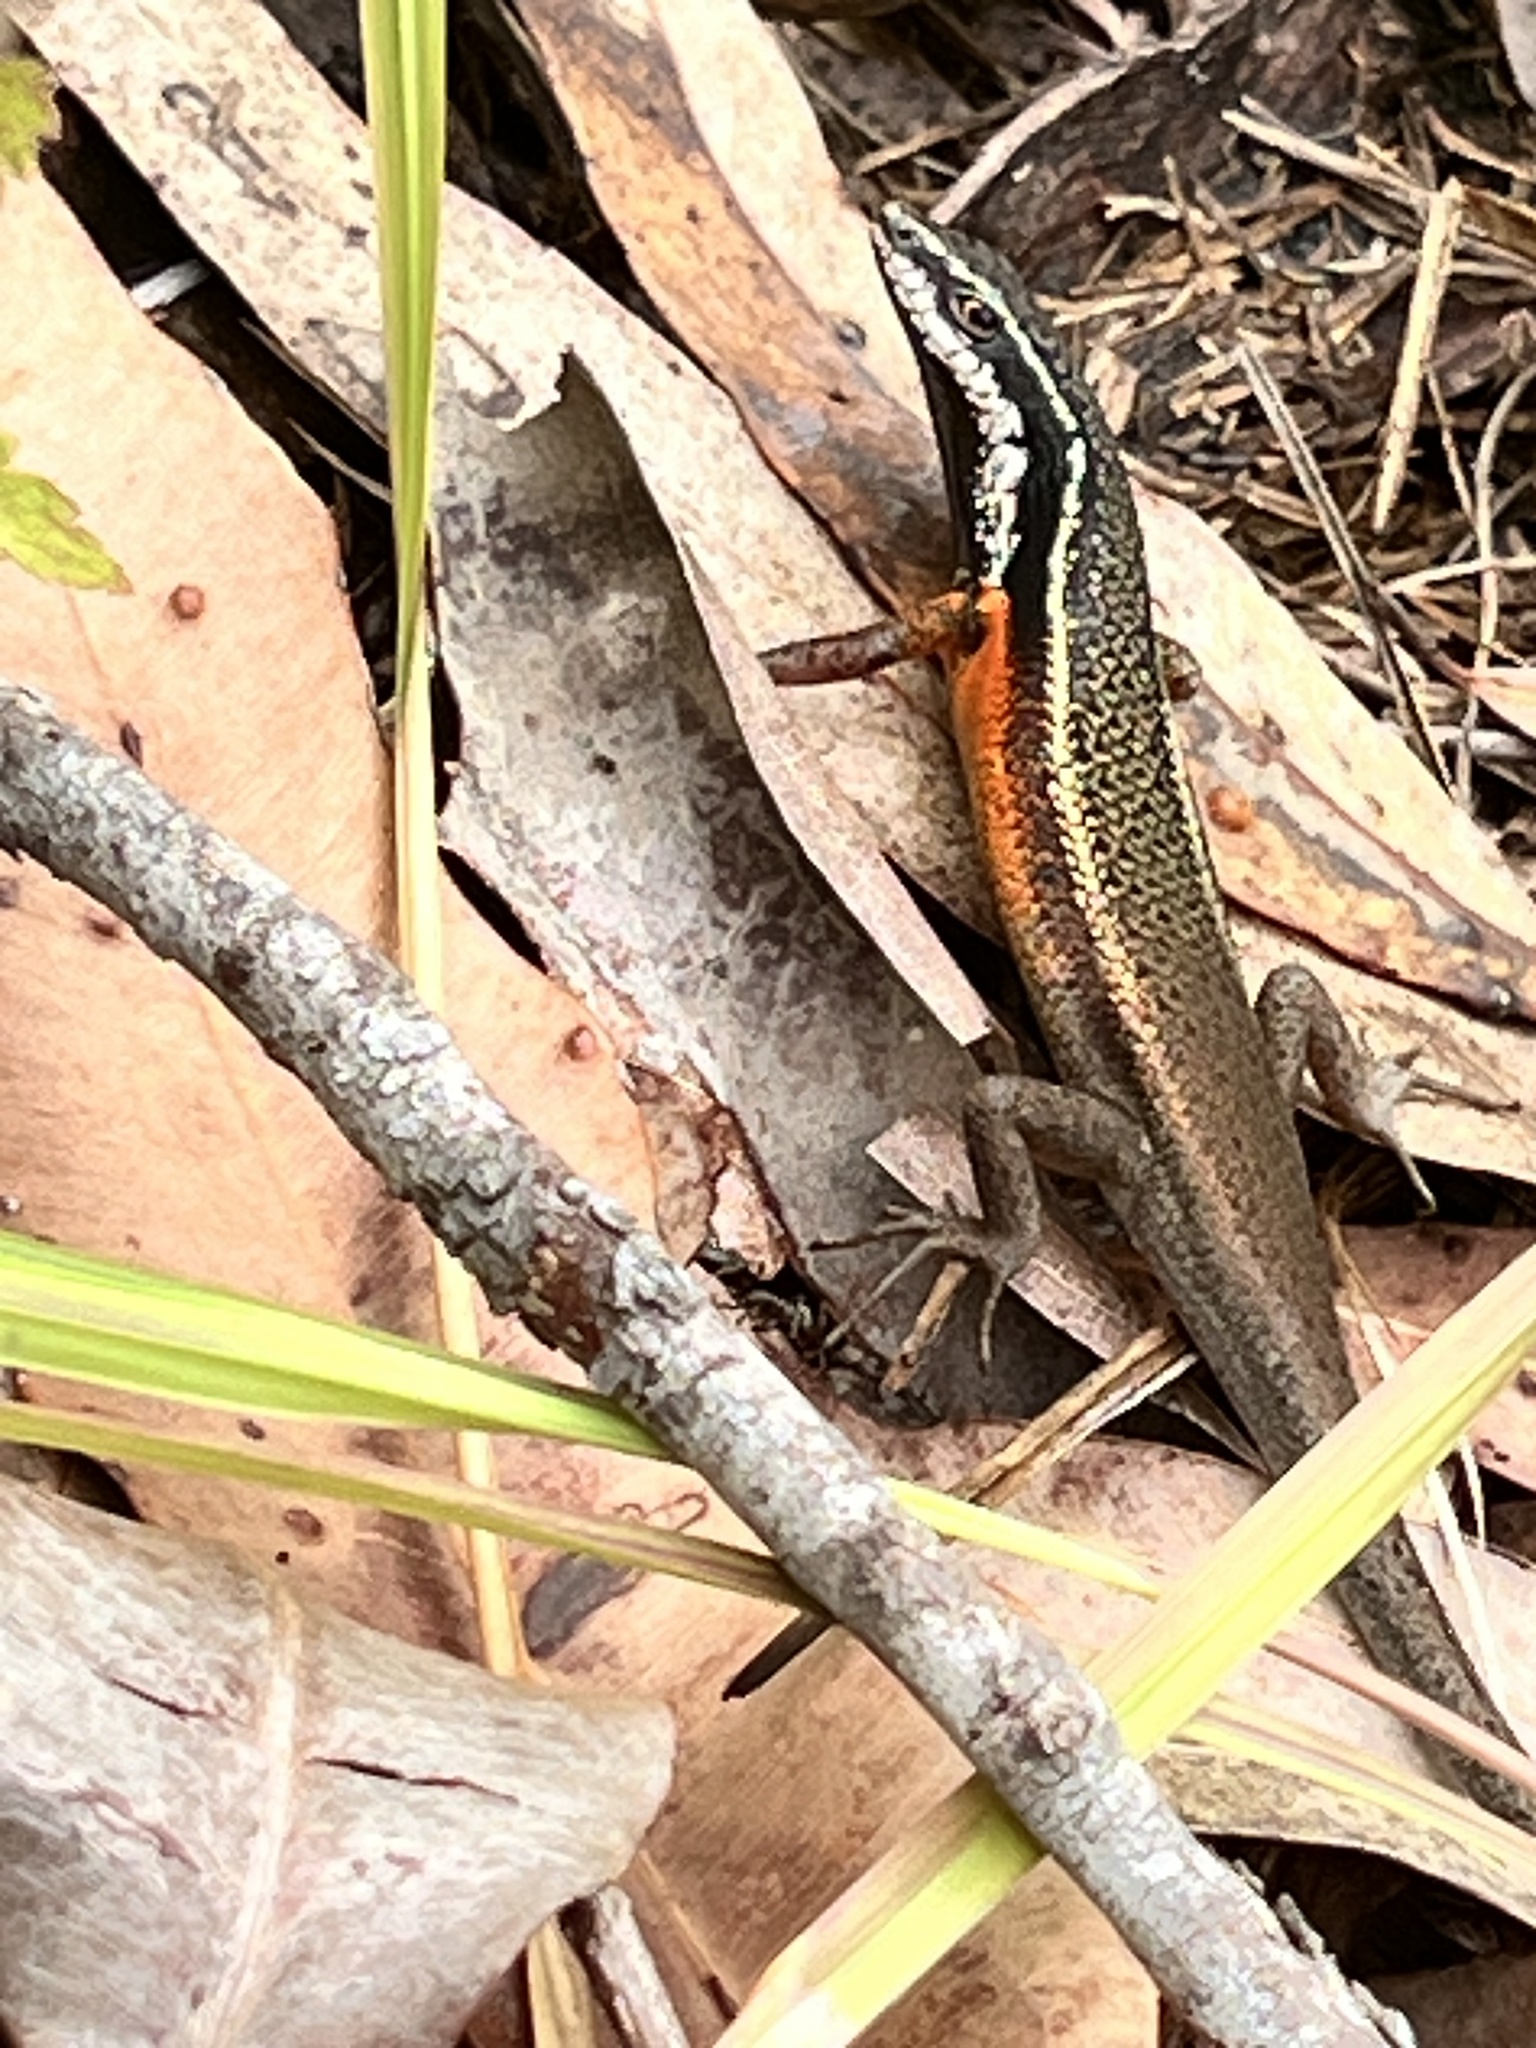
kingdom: Animalia
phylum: Chordata
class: Squamata
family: Scincidae
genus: Carlia
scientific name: Carlia rostralis
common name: Black-throated rainbow-skink
